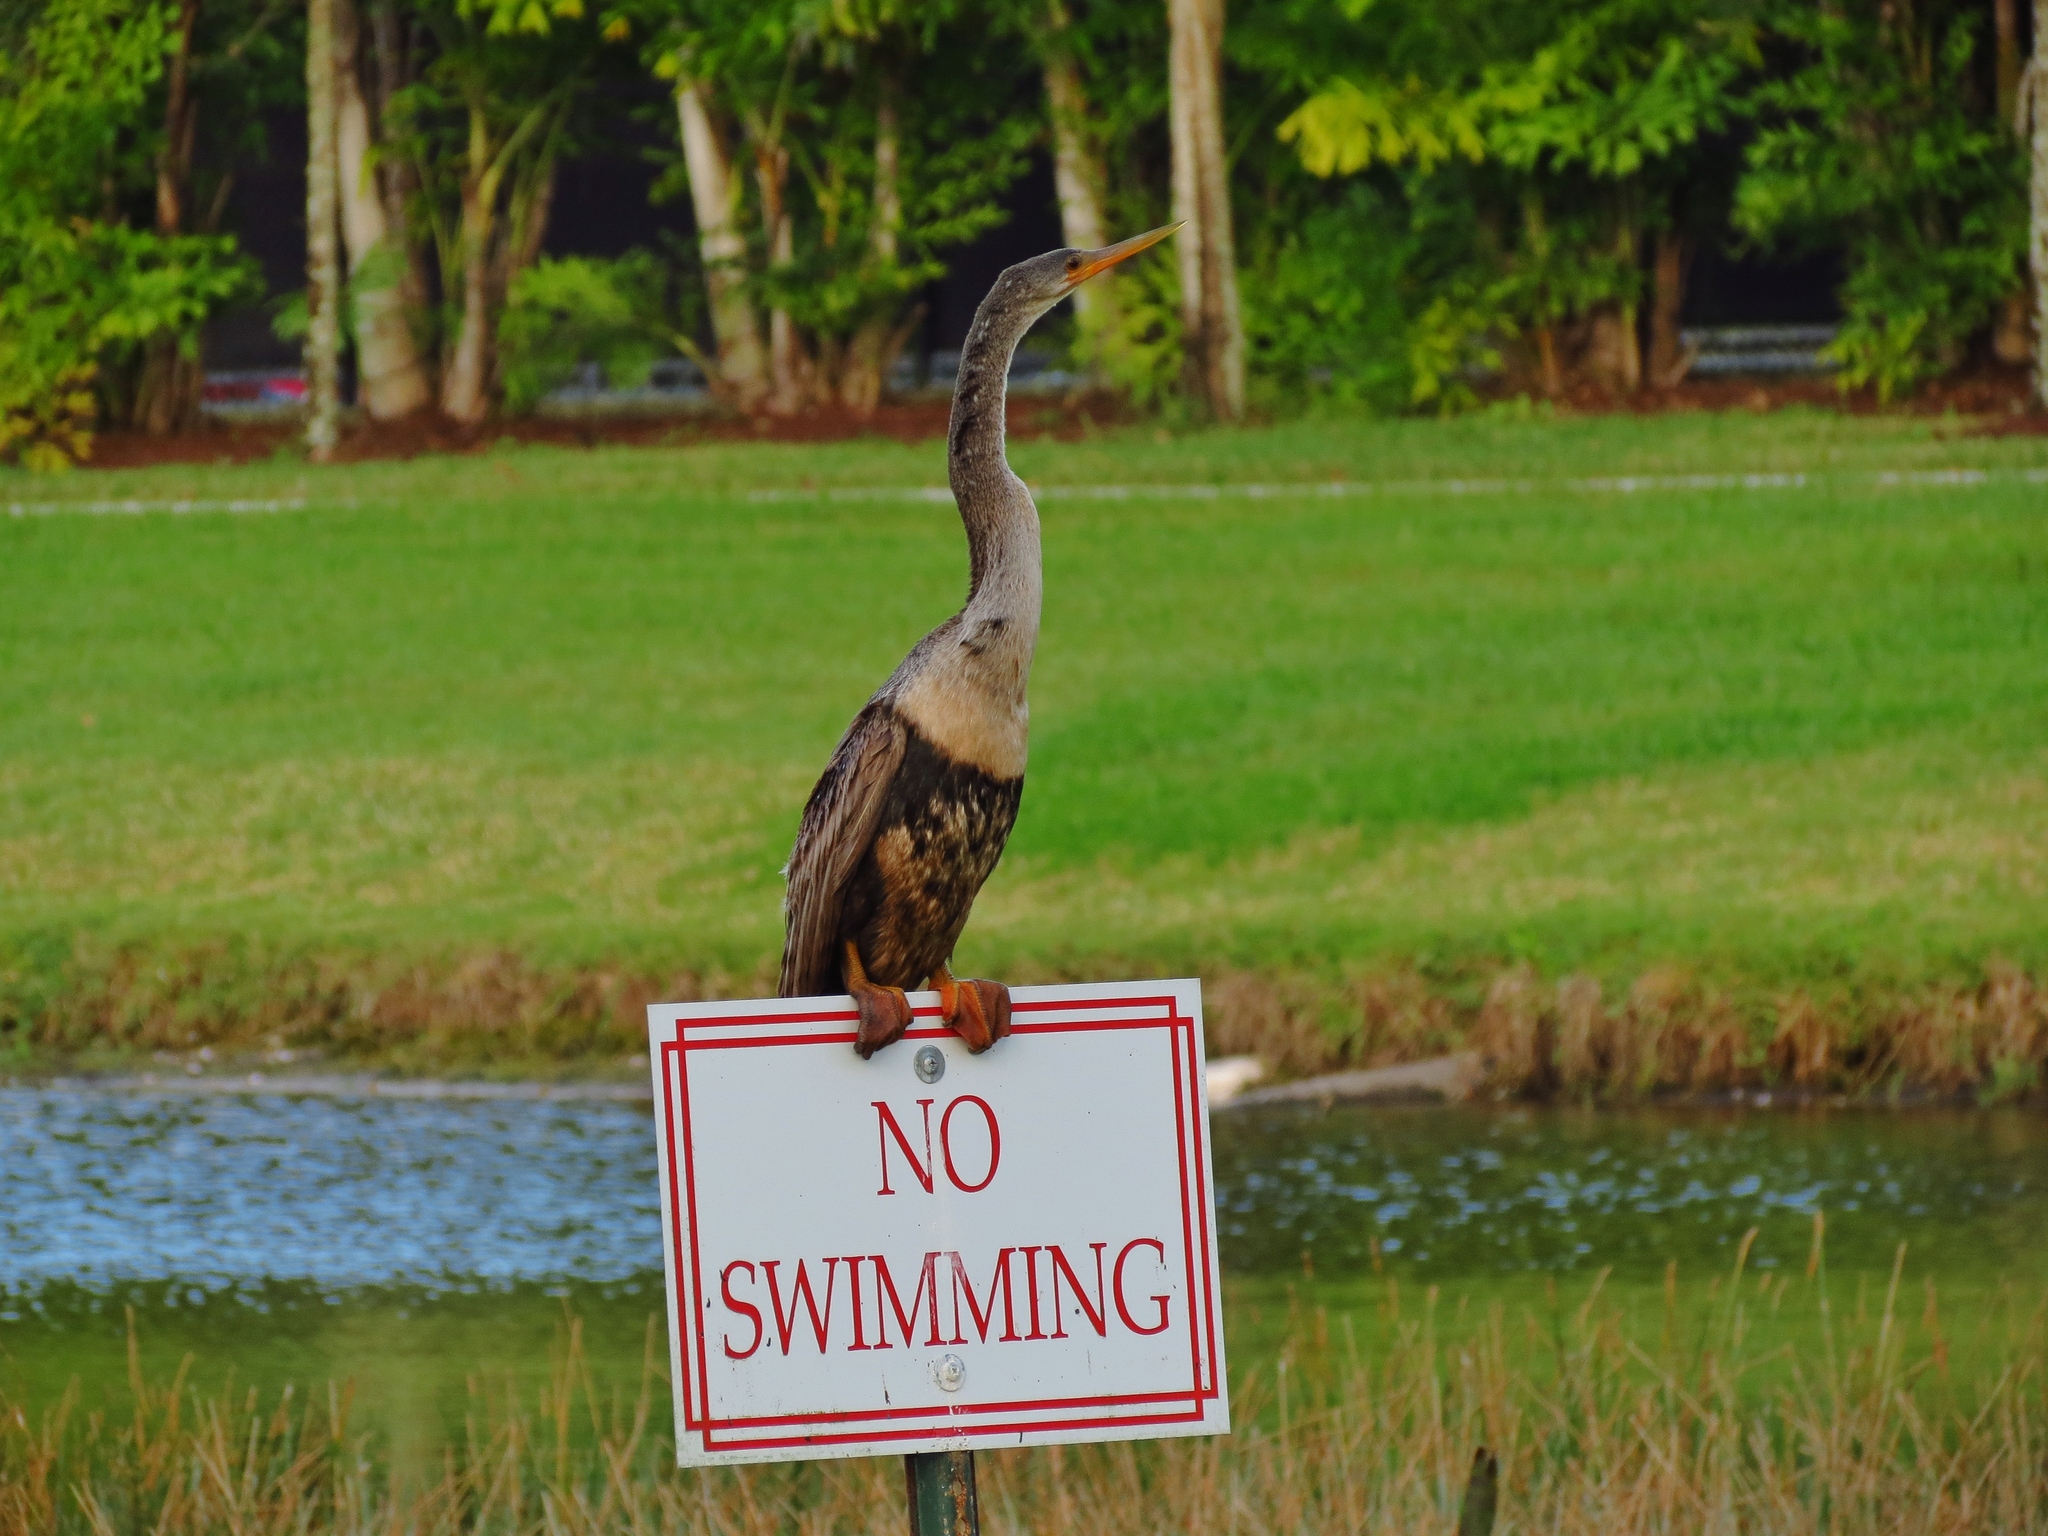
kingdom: Animalia
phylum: Chordata
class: Aves
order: Suliformes
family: Anhingidae
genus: Anhinga
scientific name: Anhinga anhinga
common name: Anhinga
